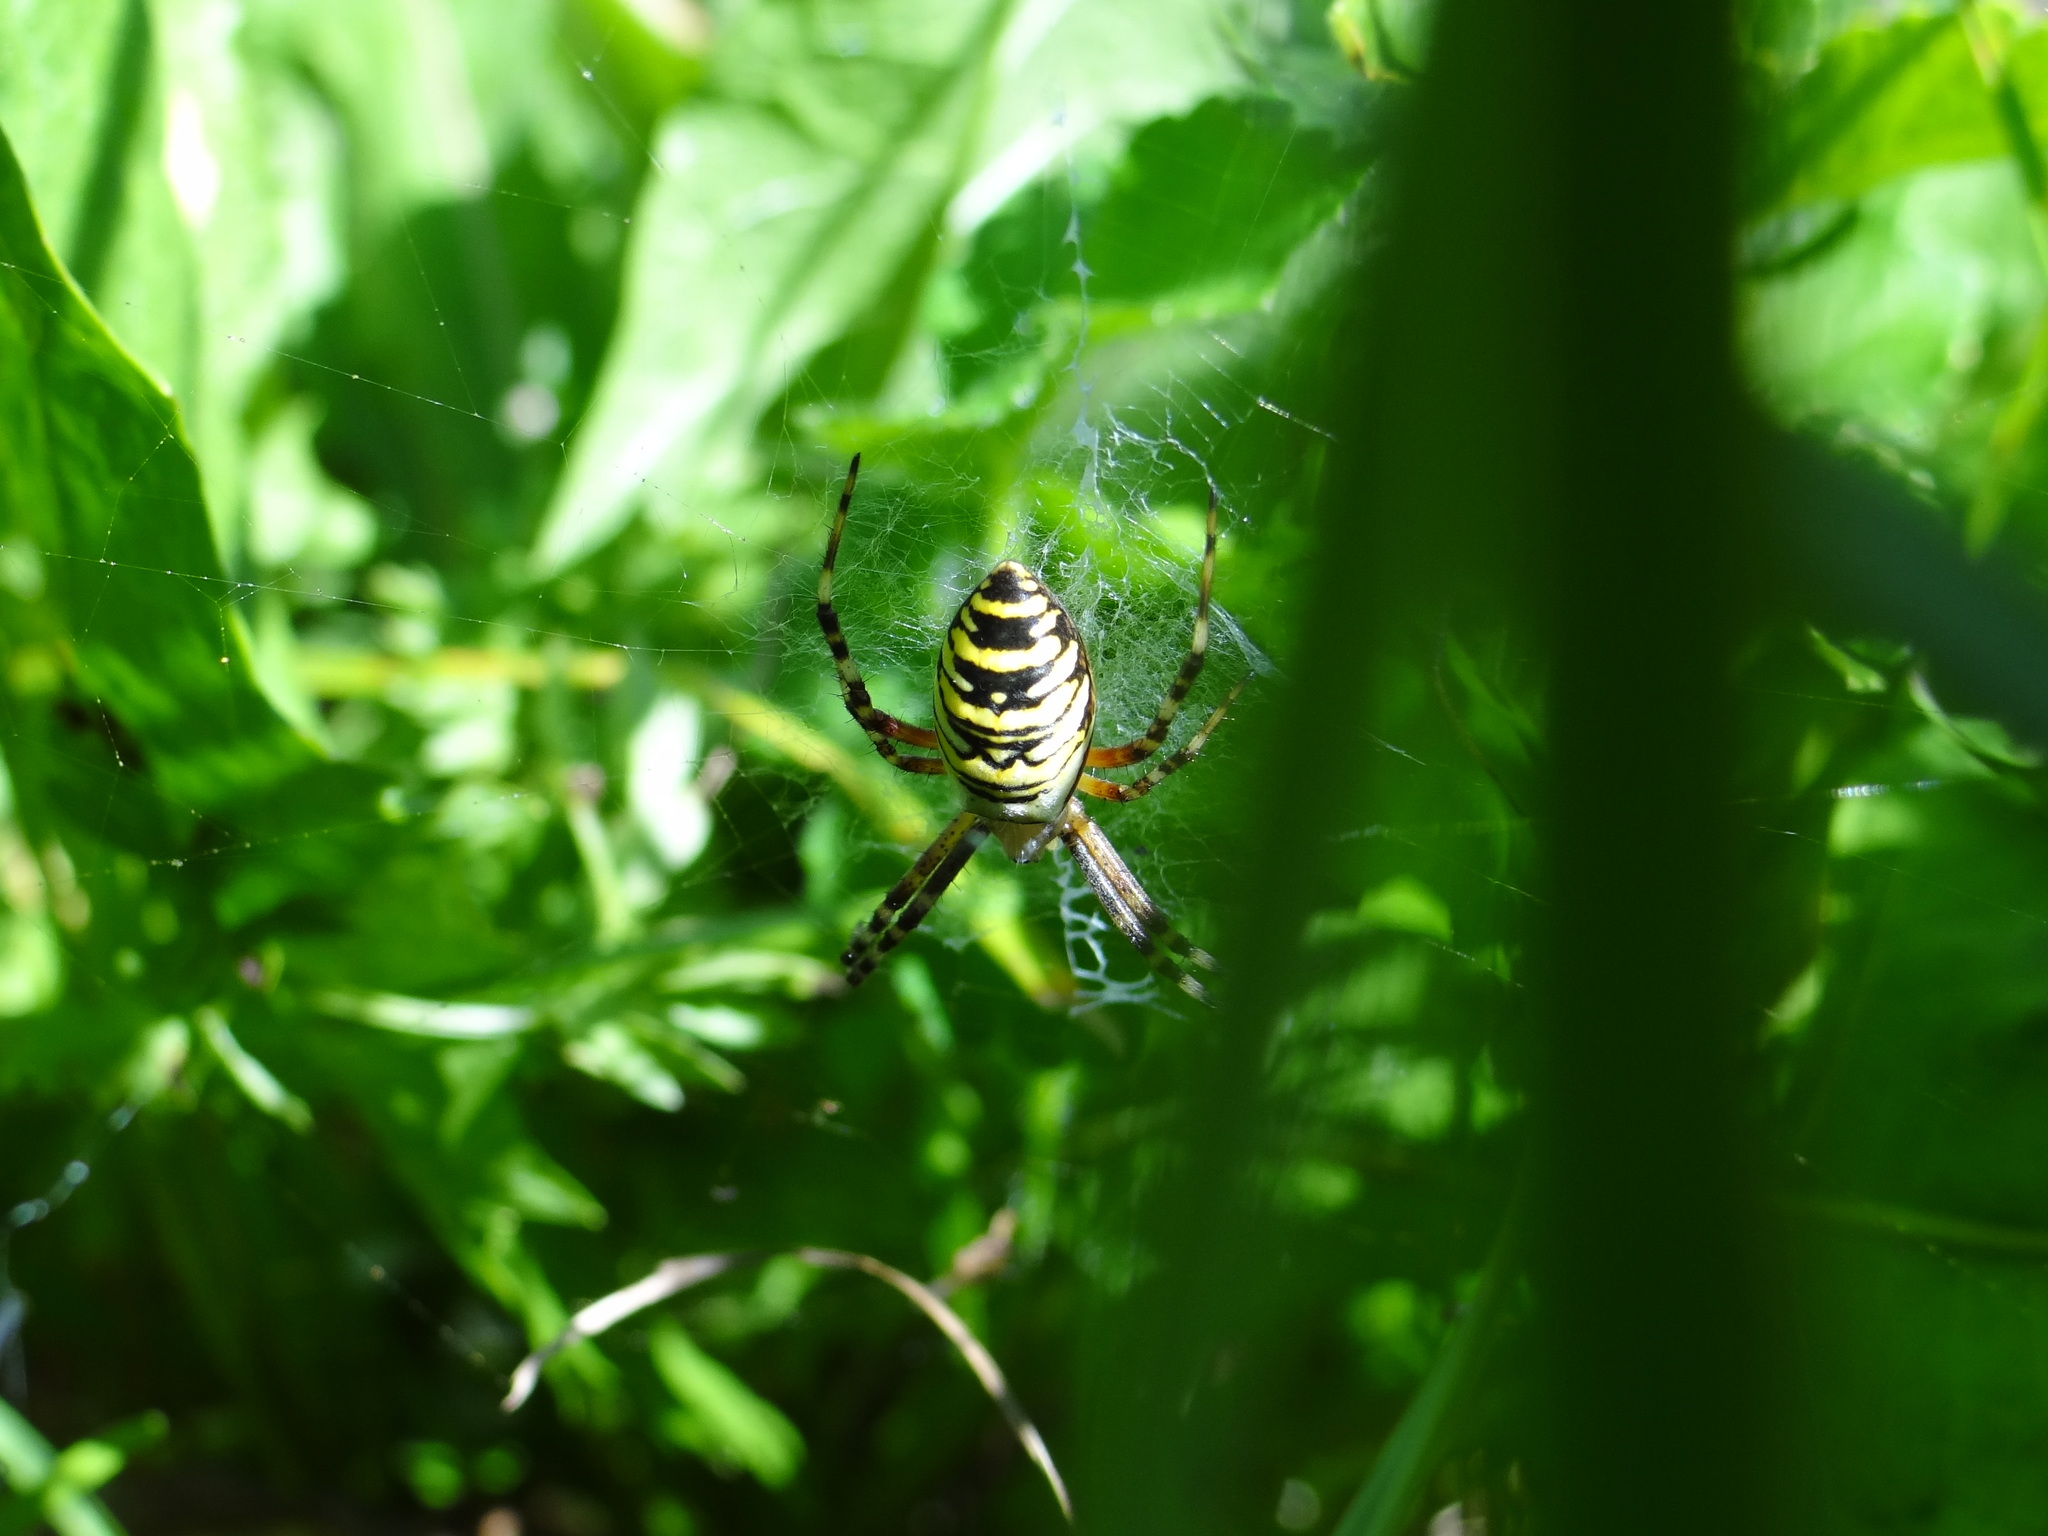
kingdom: Animalia
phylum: Arthropoda
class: Arachnida
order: Araneae
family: Araneidae
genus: Argiope
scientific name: Argiope bruennichi
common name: Wasp spider
